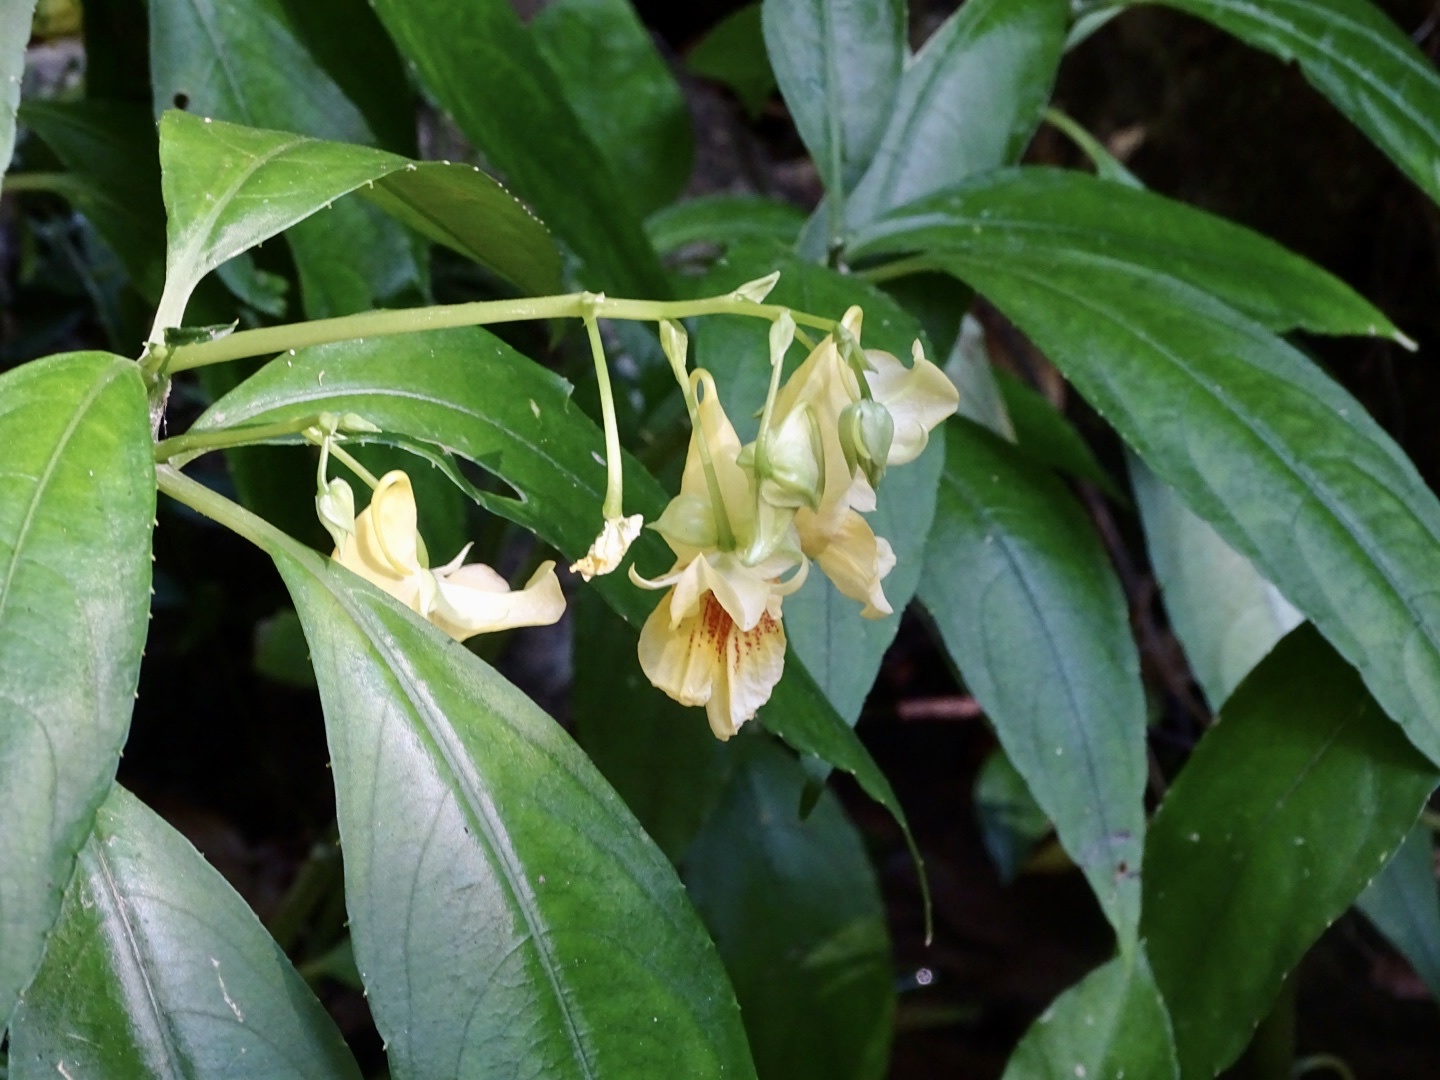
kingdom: Plantae
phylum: Tracheophyta
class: Magnoliopsida
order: Ericales
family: Balsaminaceae
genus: Impatiens
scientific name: Impatiens hongkongensis
